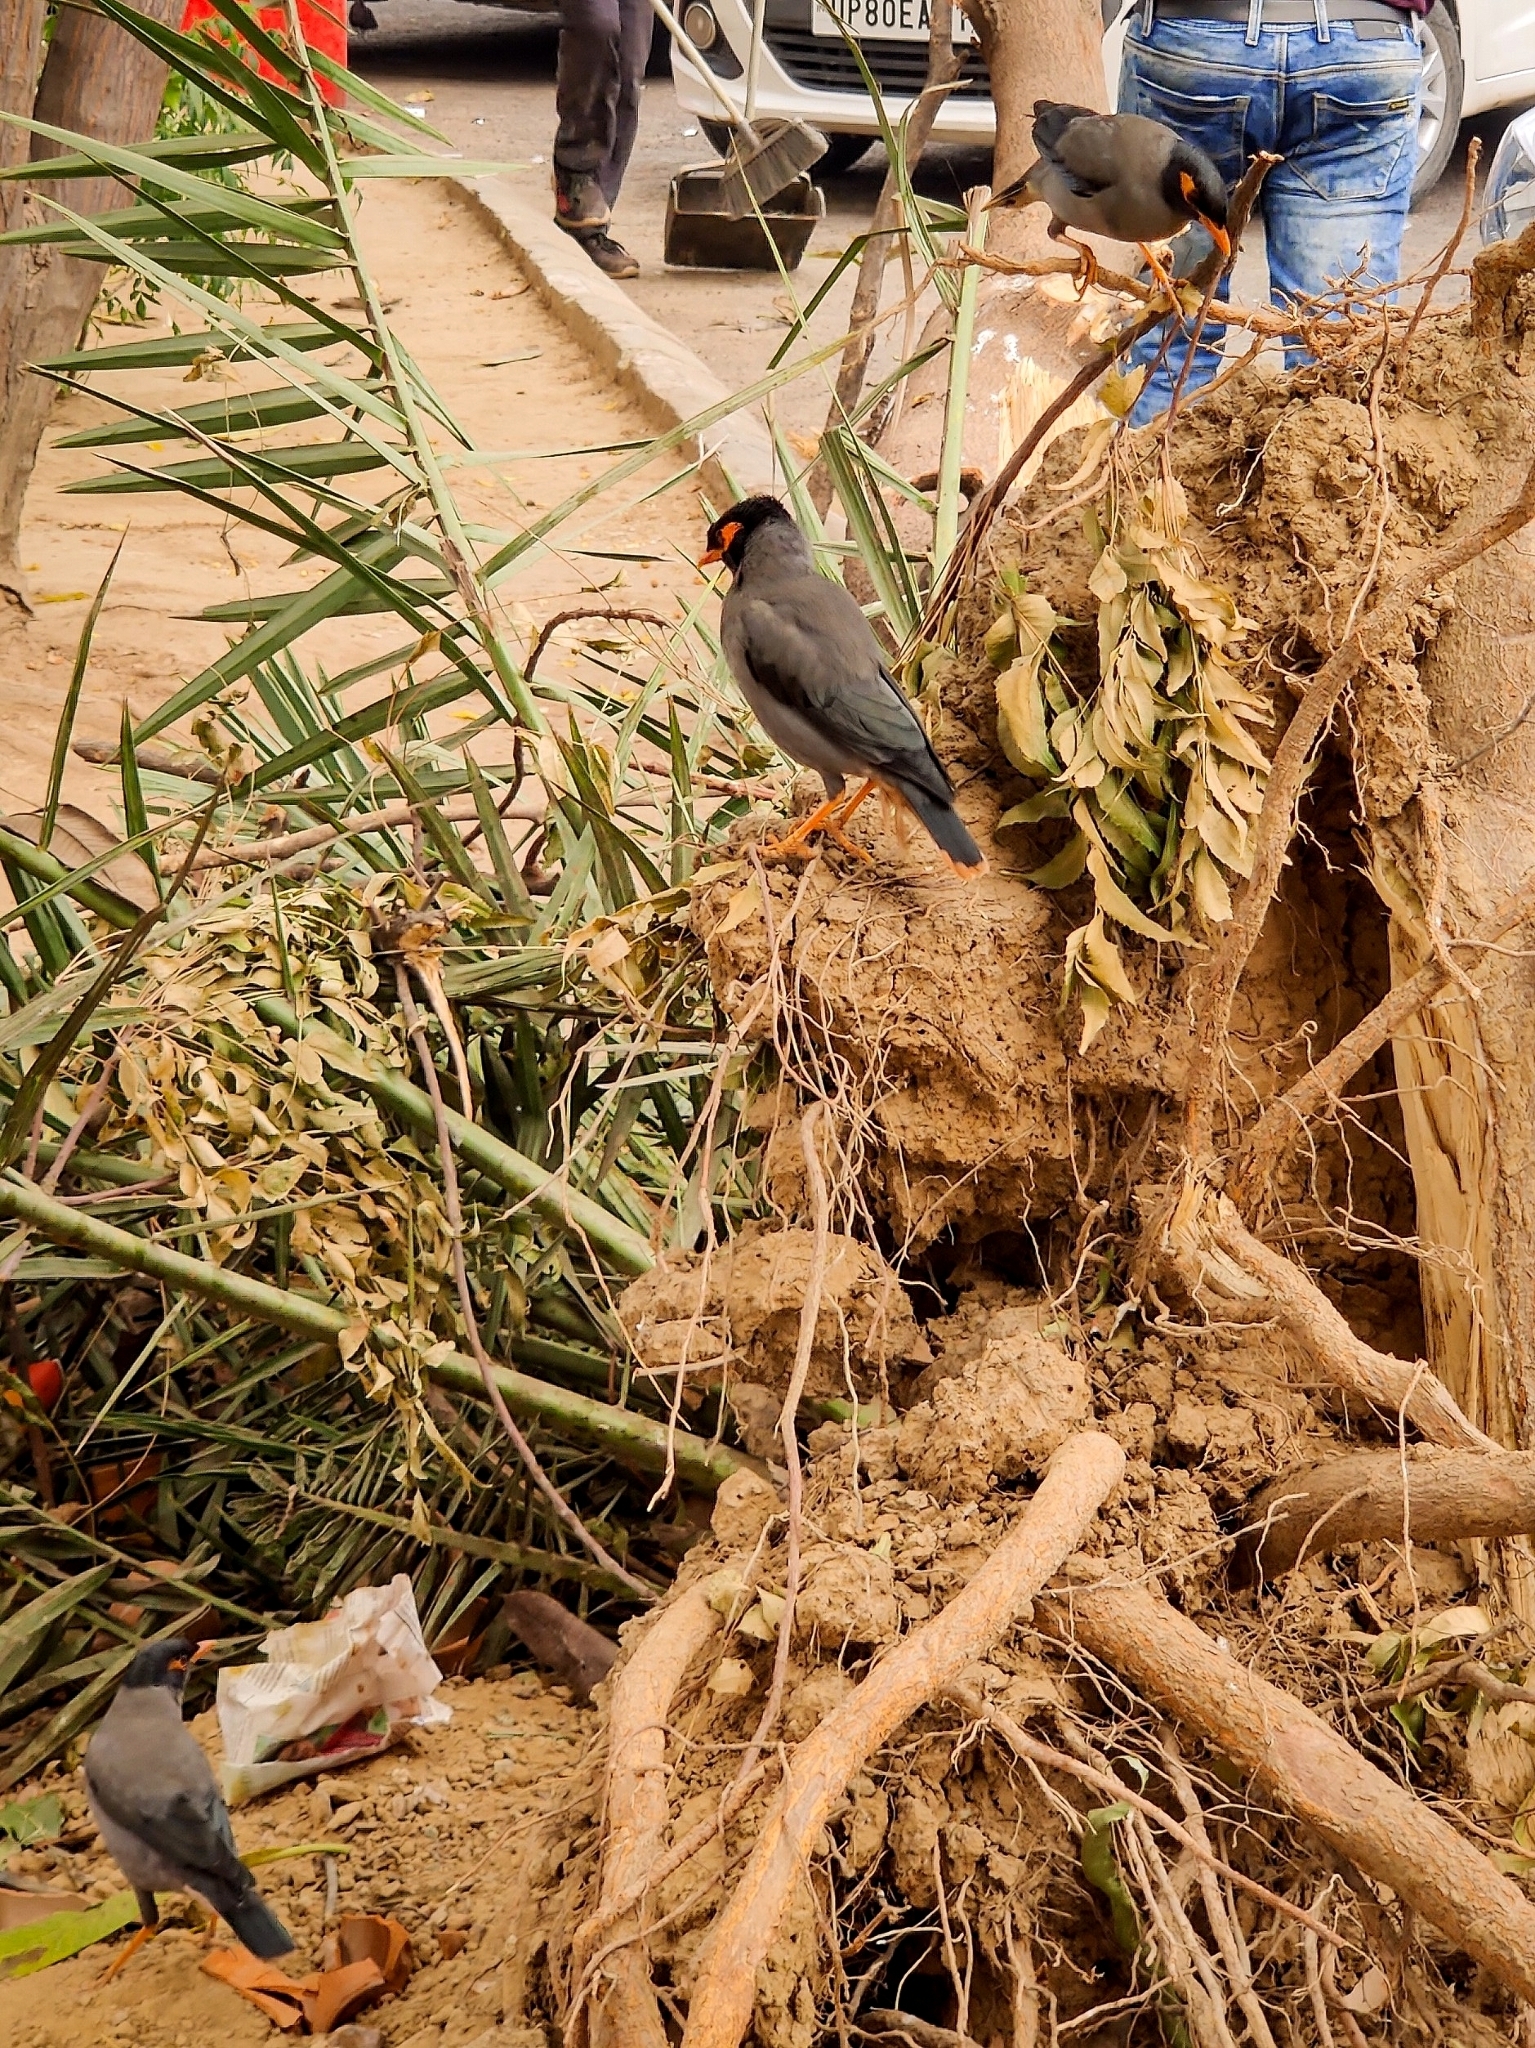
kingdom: Animalia
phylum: Chordata
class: Aves
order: Passeriformes
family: Sturnidae
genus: Acridotheres
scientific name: Acridotheres ginginianus
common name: Bank myna
